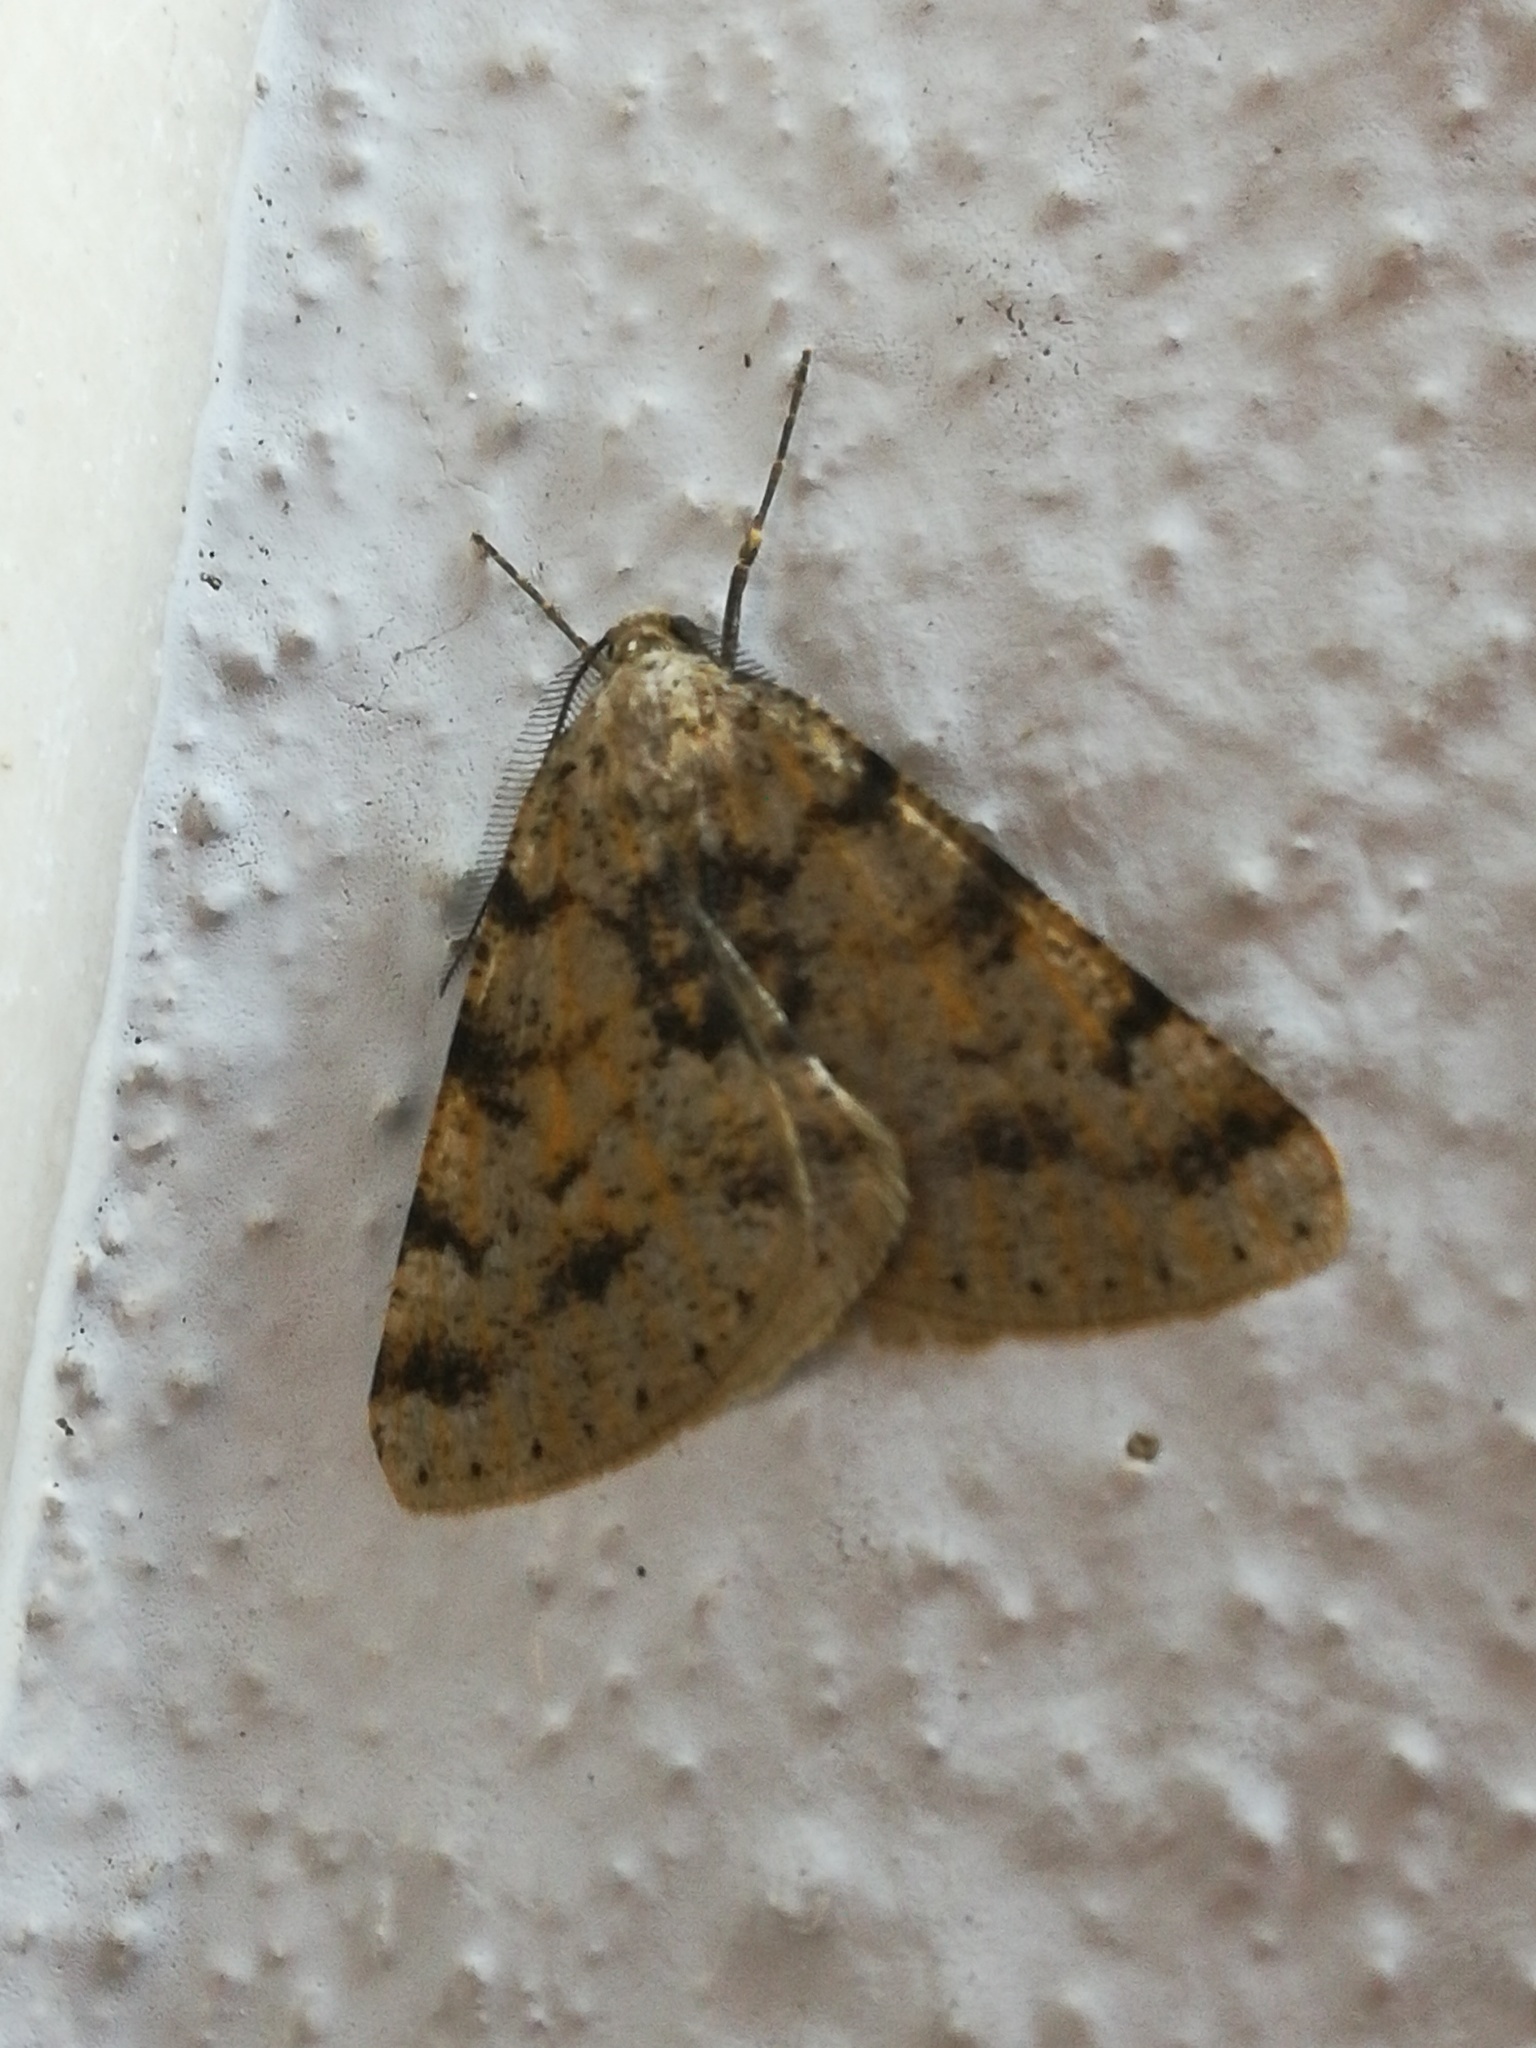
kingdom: Animalia
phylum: Arthropoda
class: Insecta
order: Lepidoptera
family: Geometridae
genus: Isturgia
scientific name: Isturgia miniosaria
